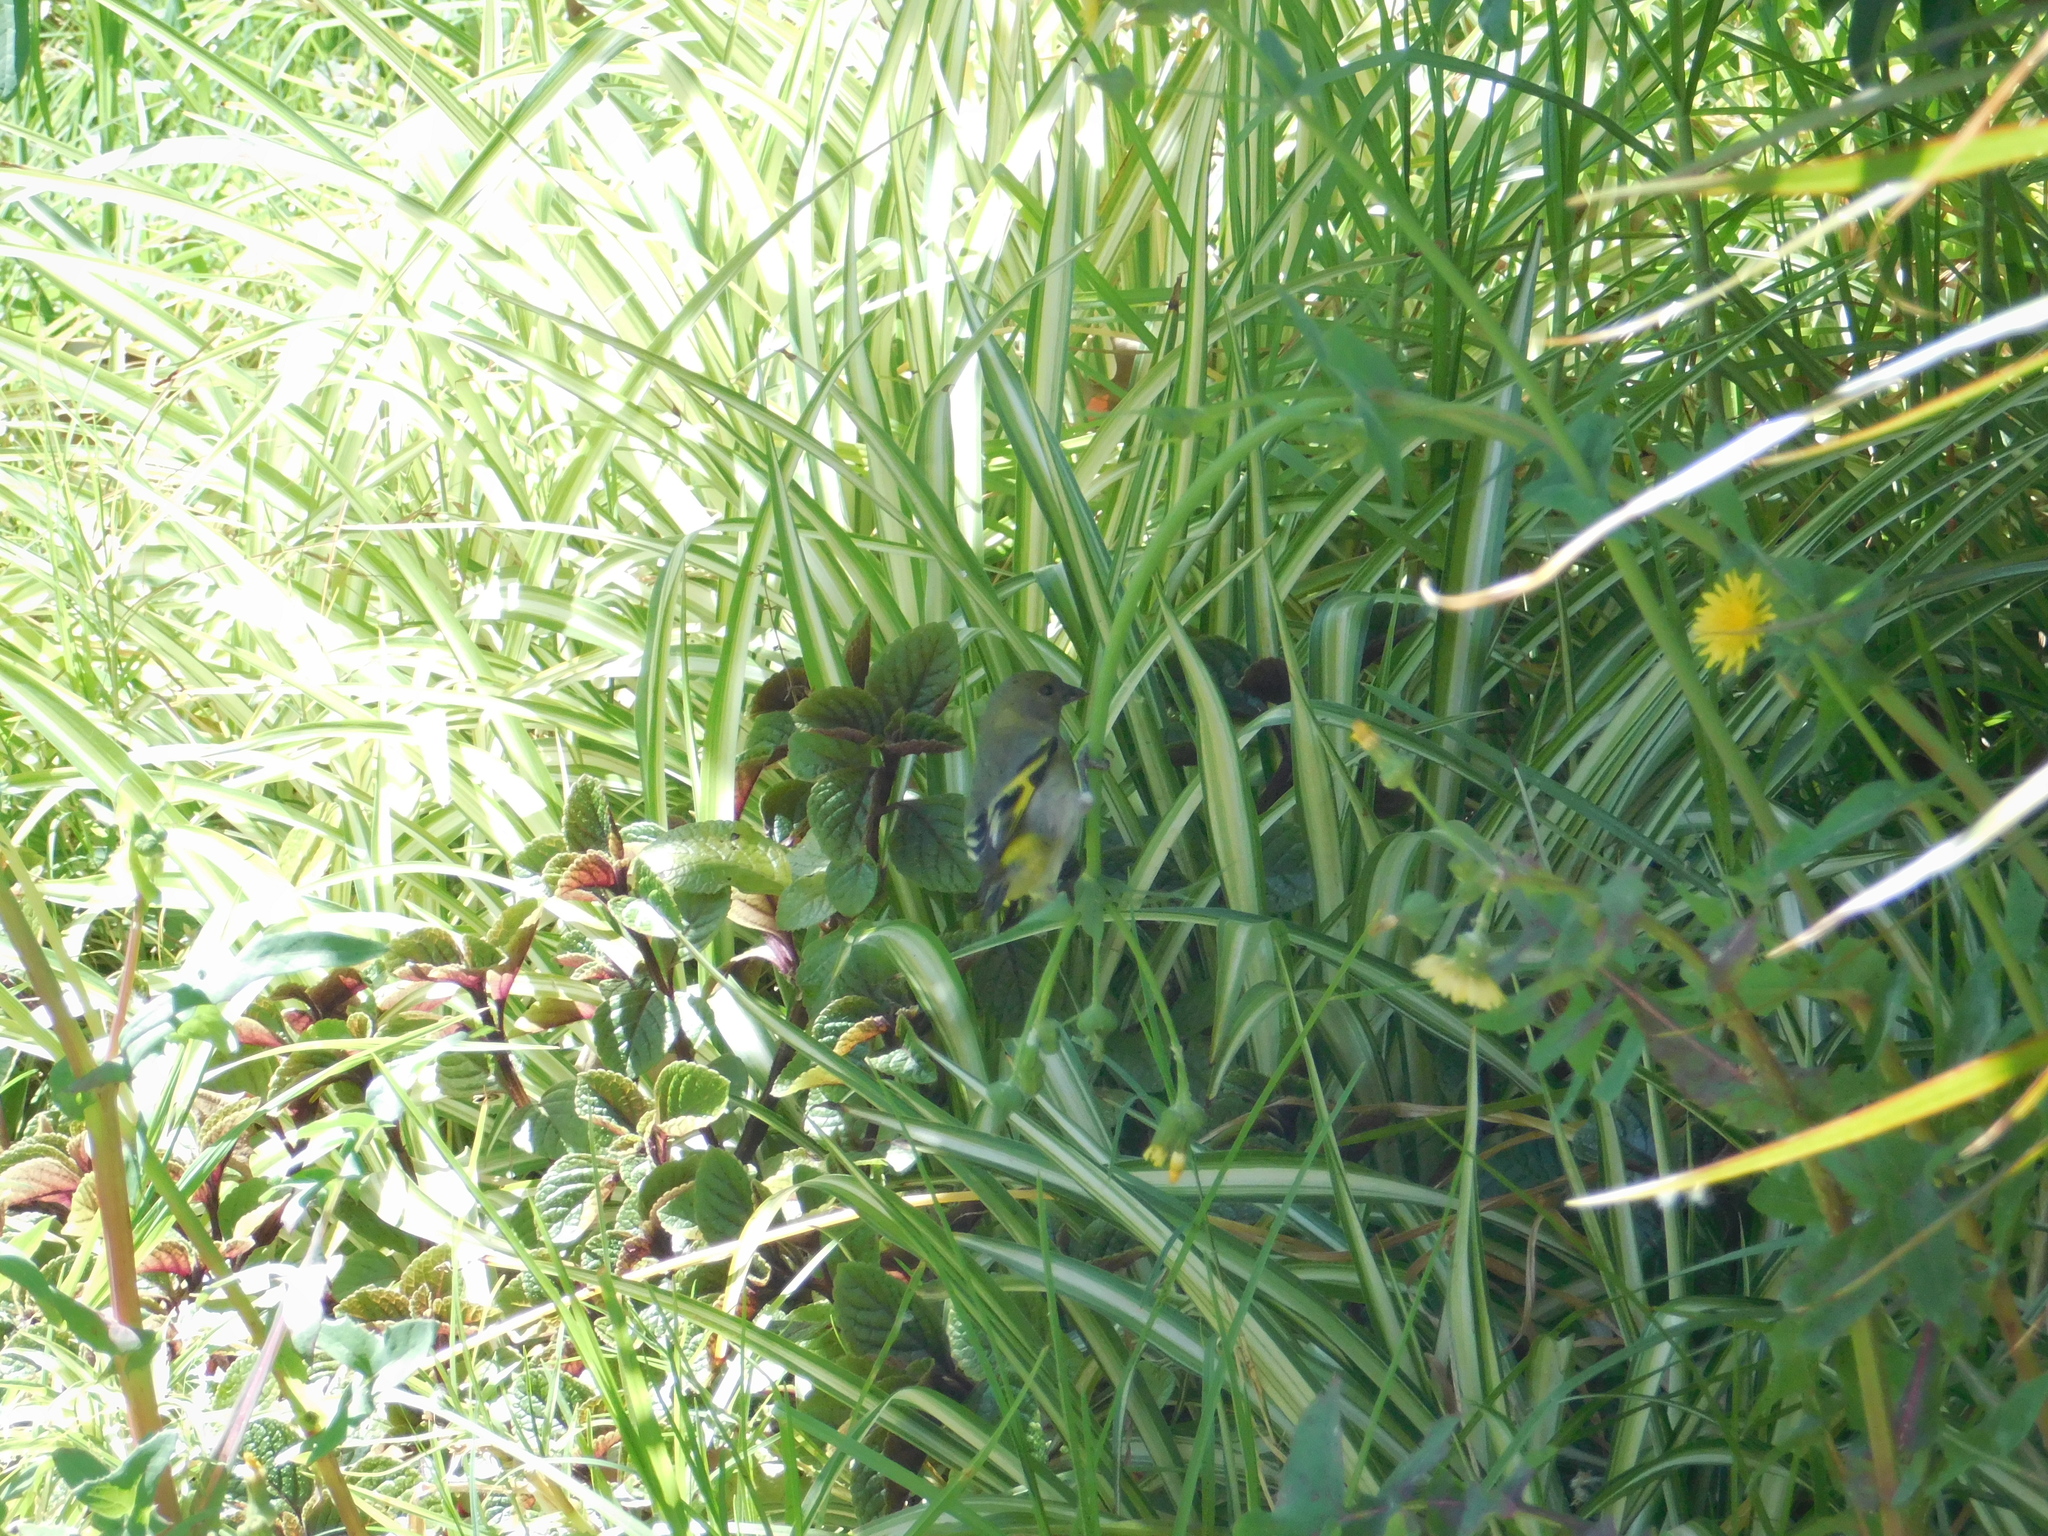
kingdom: Animalia
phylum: Chordata
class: Aves
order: Passeriformes
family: Fringillidae
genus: Spinus
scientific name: Spinus magellanicus
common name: Hooded siskin
